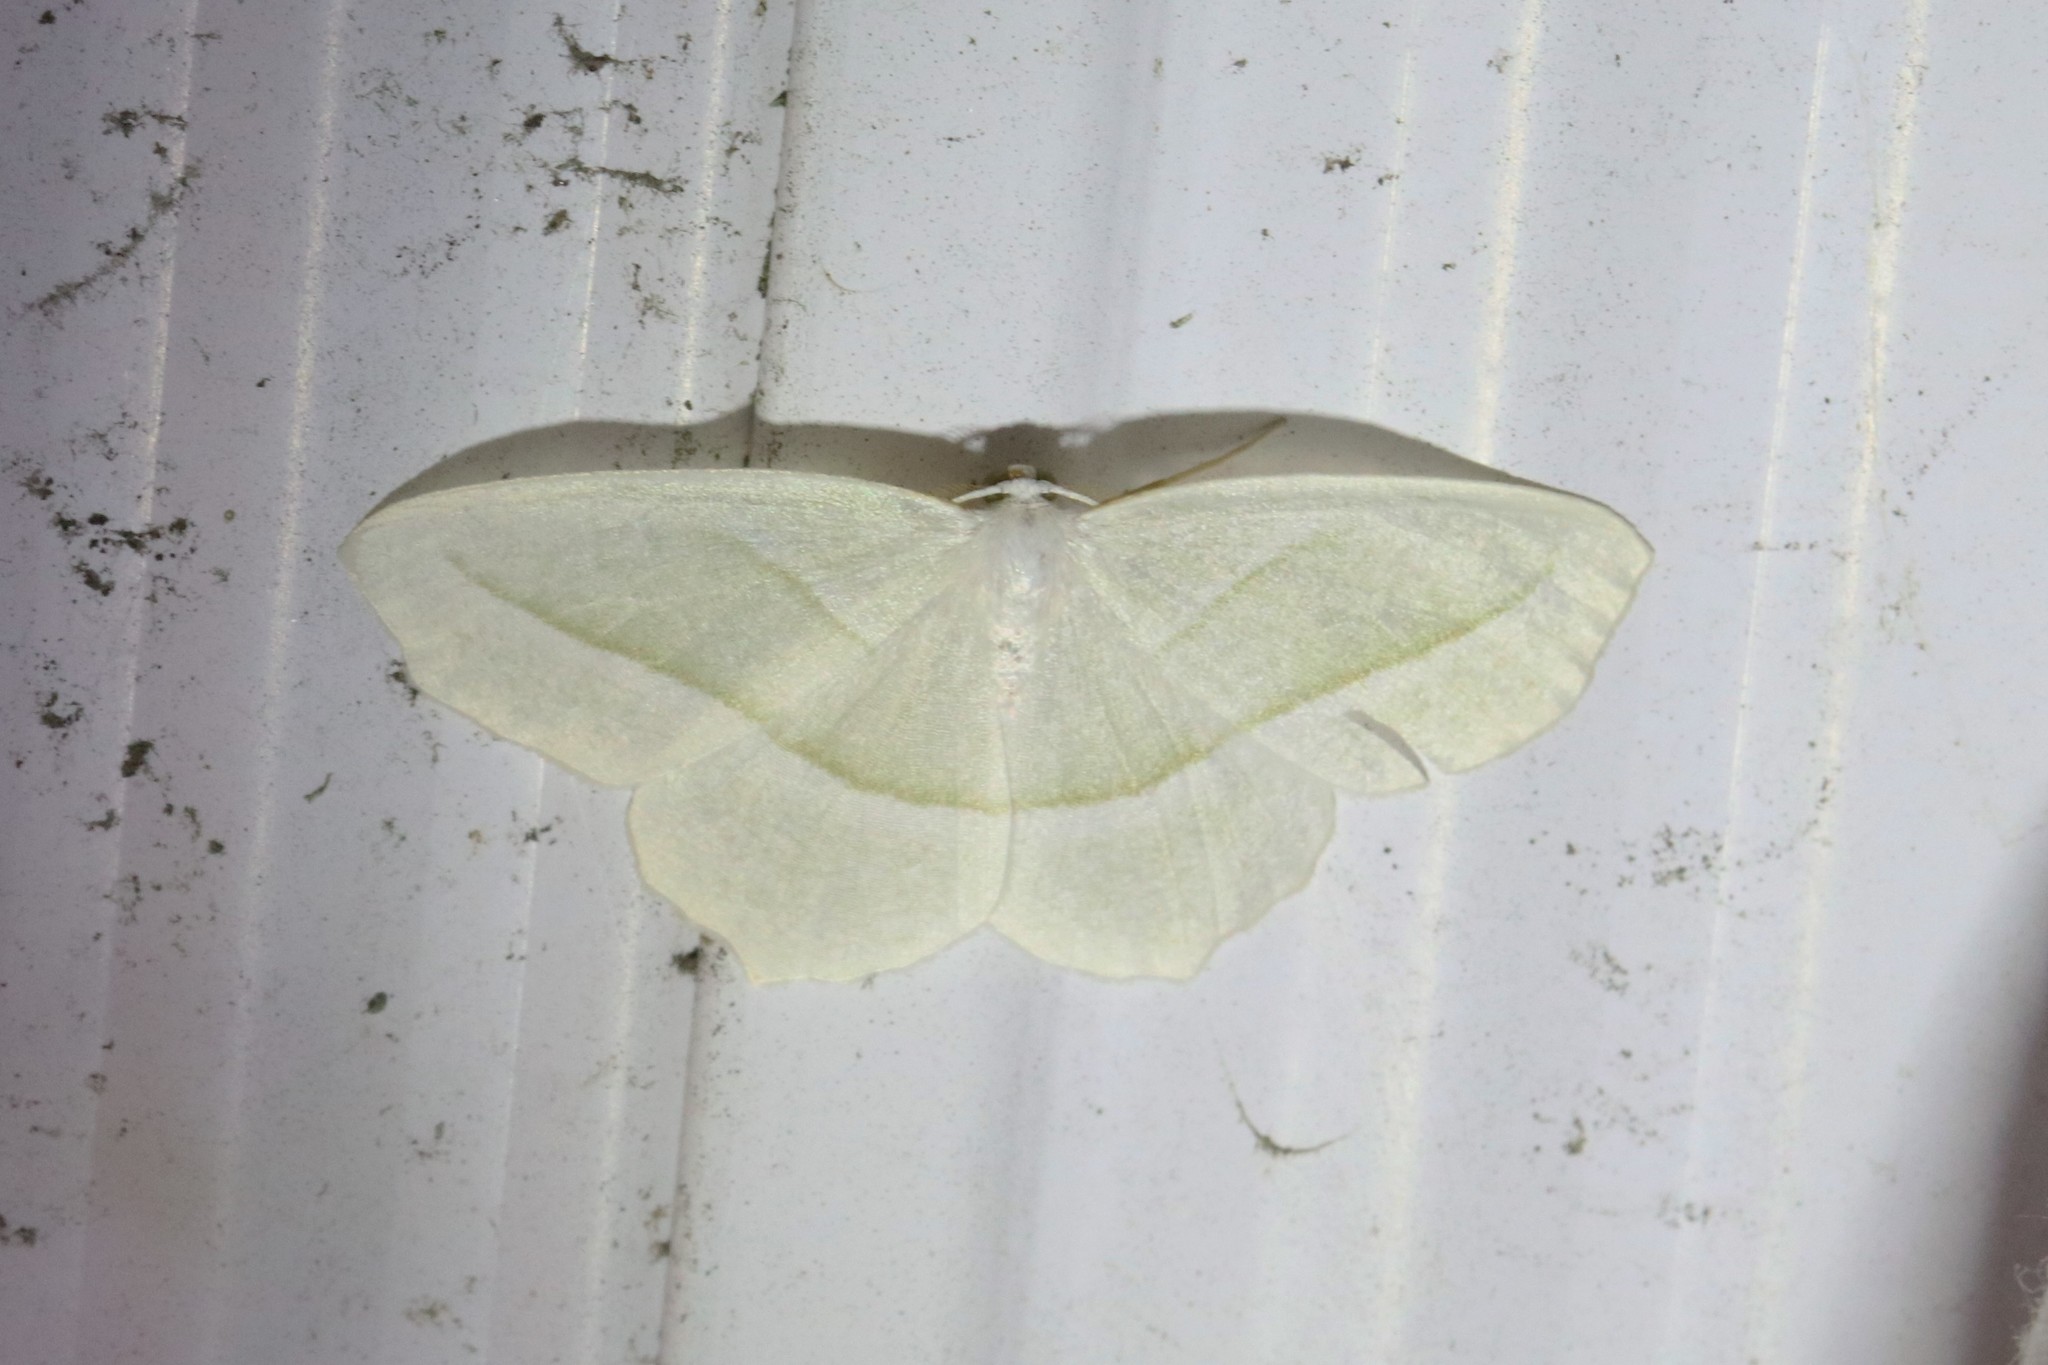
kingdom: Animalia
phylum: Arthropoda
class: Insecta
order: Lepidoptera
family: Geometridae
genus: Campaea
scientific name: Campaea perlata
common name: Fringed looper
